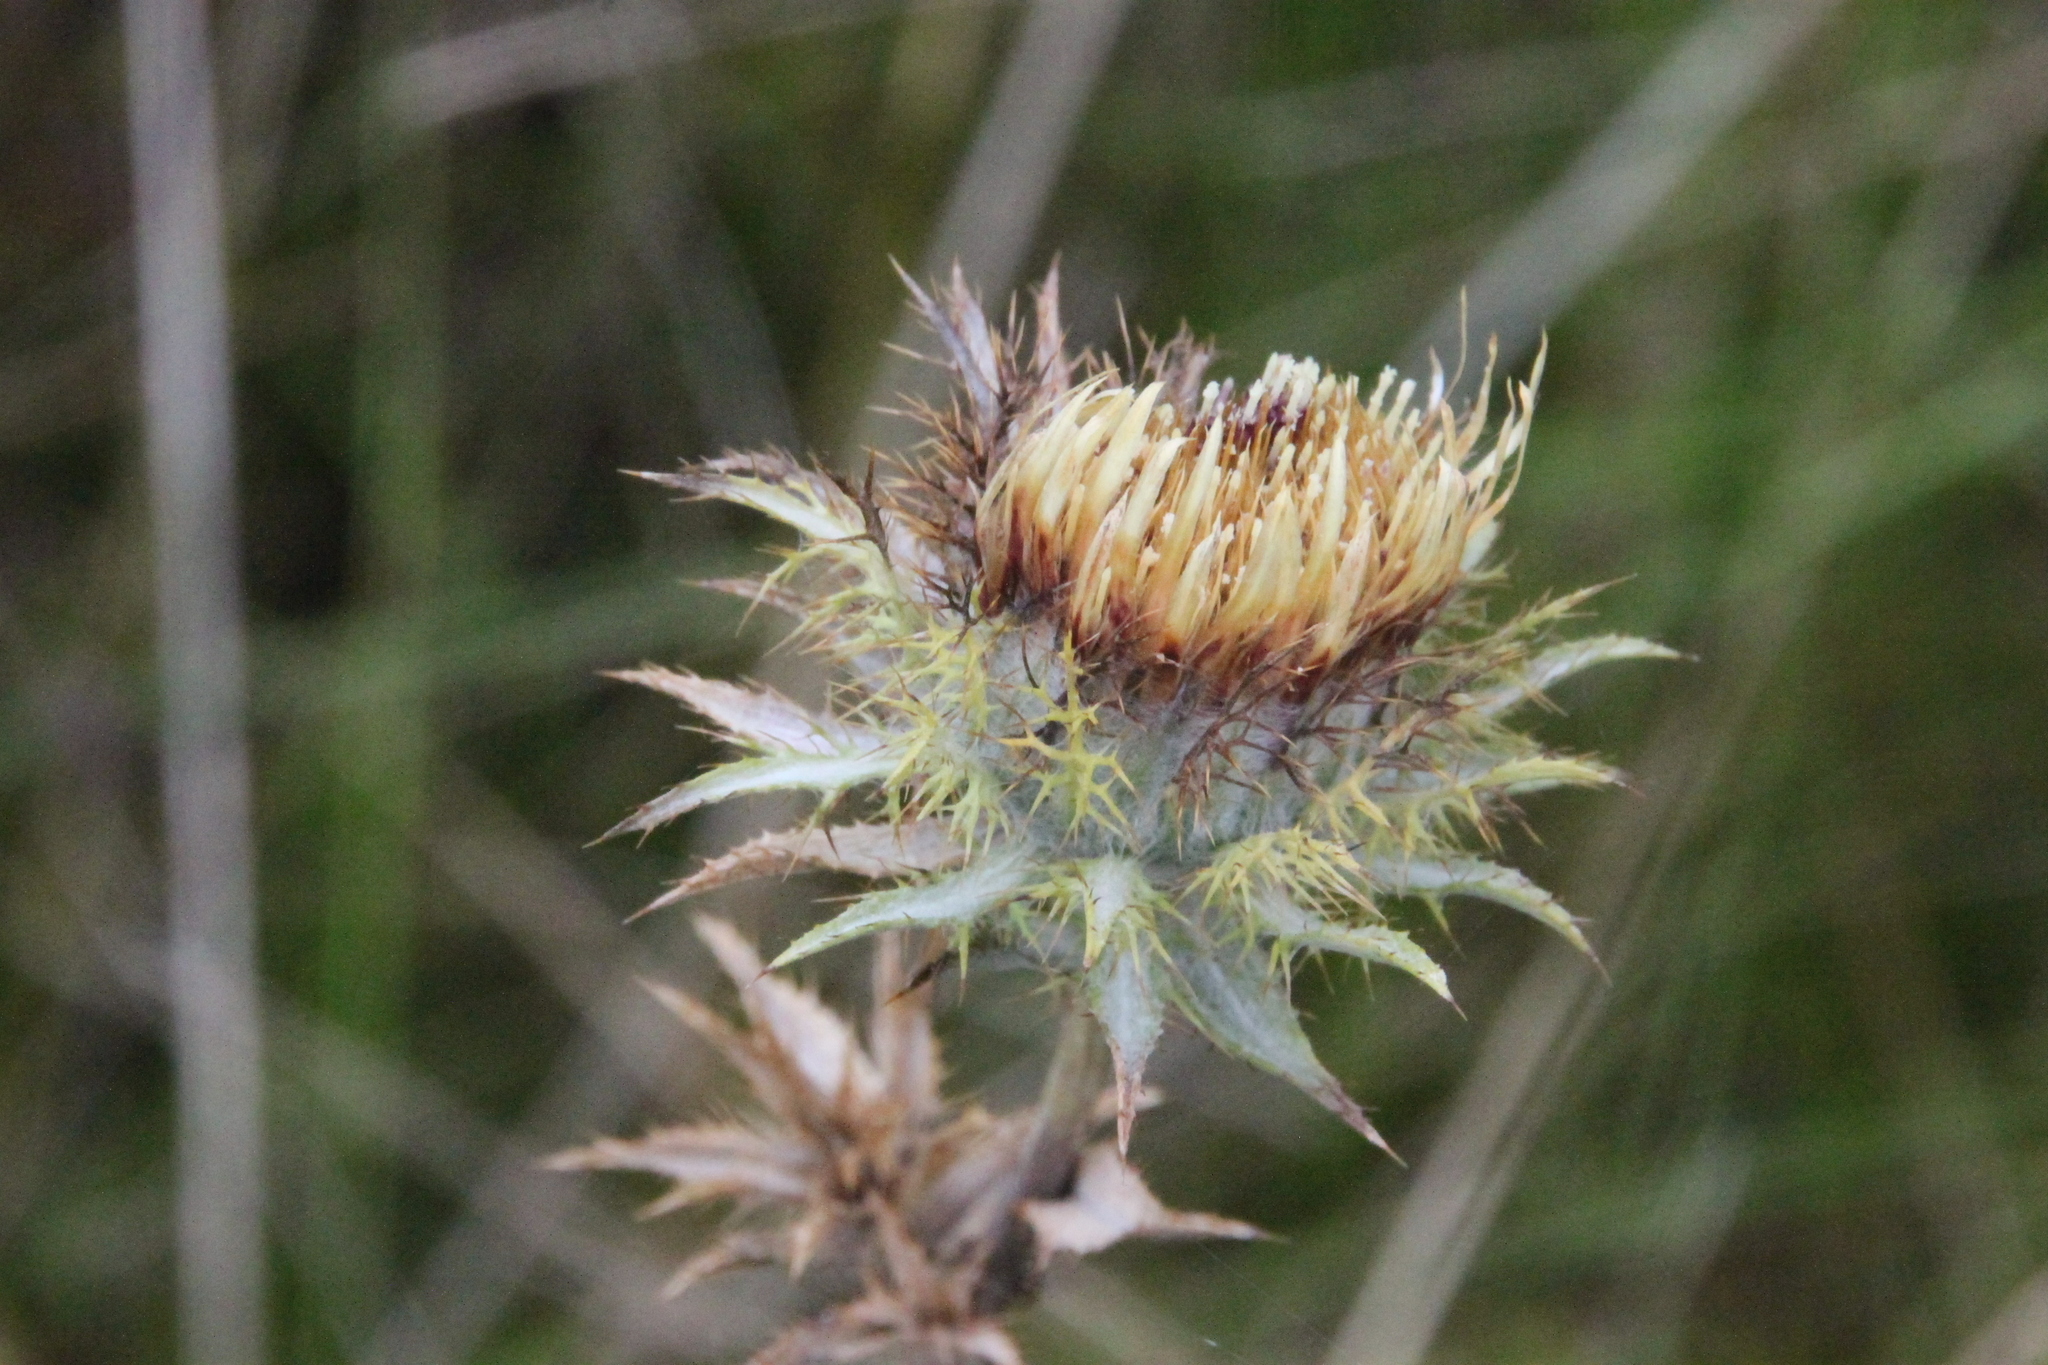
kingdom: Plantae
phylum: Tracheophyta
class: Magnoliopsida
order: Asterales
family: Asteraceae
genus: Carlina
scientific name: Carlina biebersteinii
